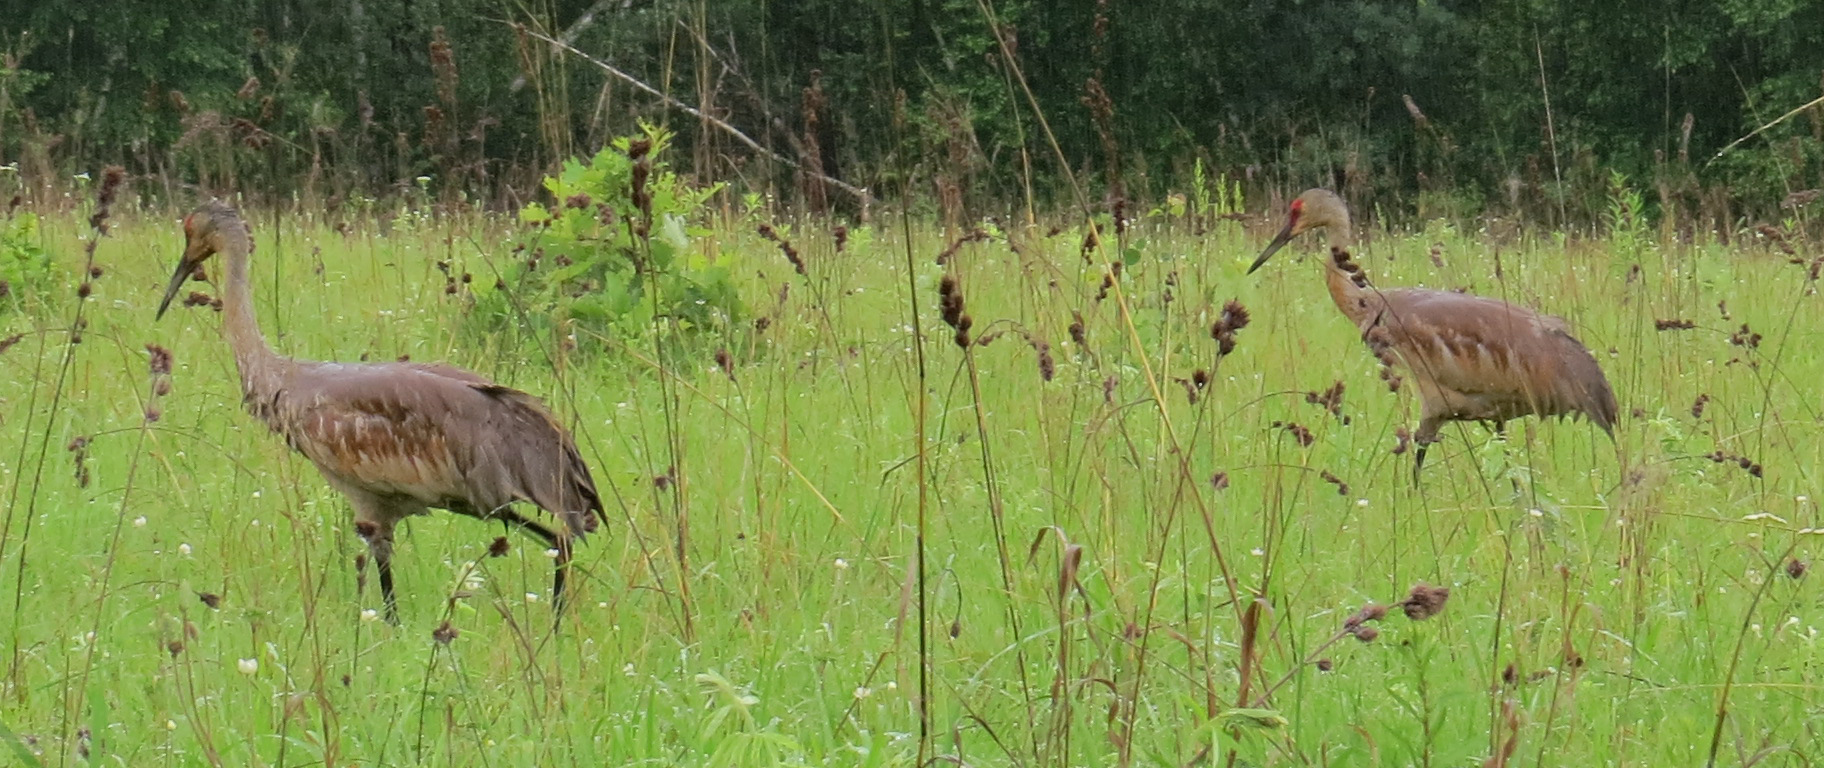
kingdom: Animalia
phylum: Chordata
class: Aves
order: Gruiformes
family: Gruidae
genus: Grus
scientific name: Grus canadensis
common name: Sandhill crane
